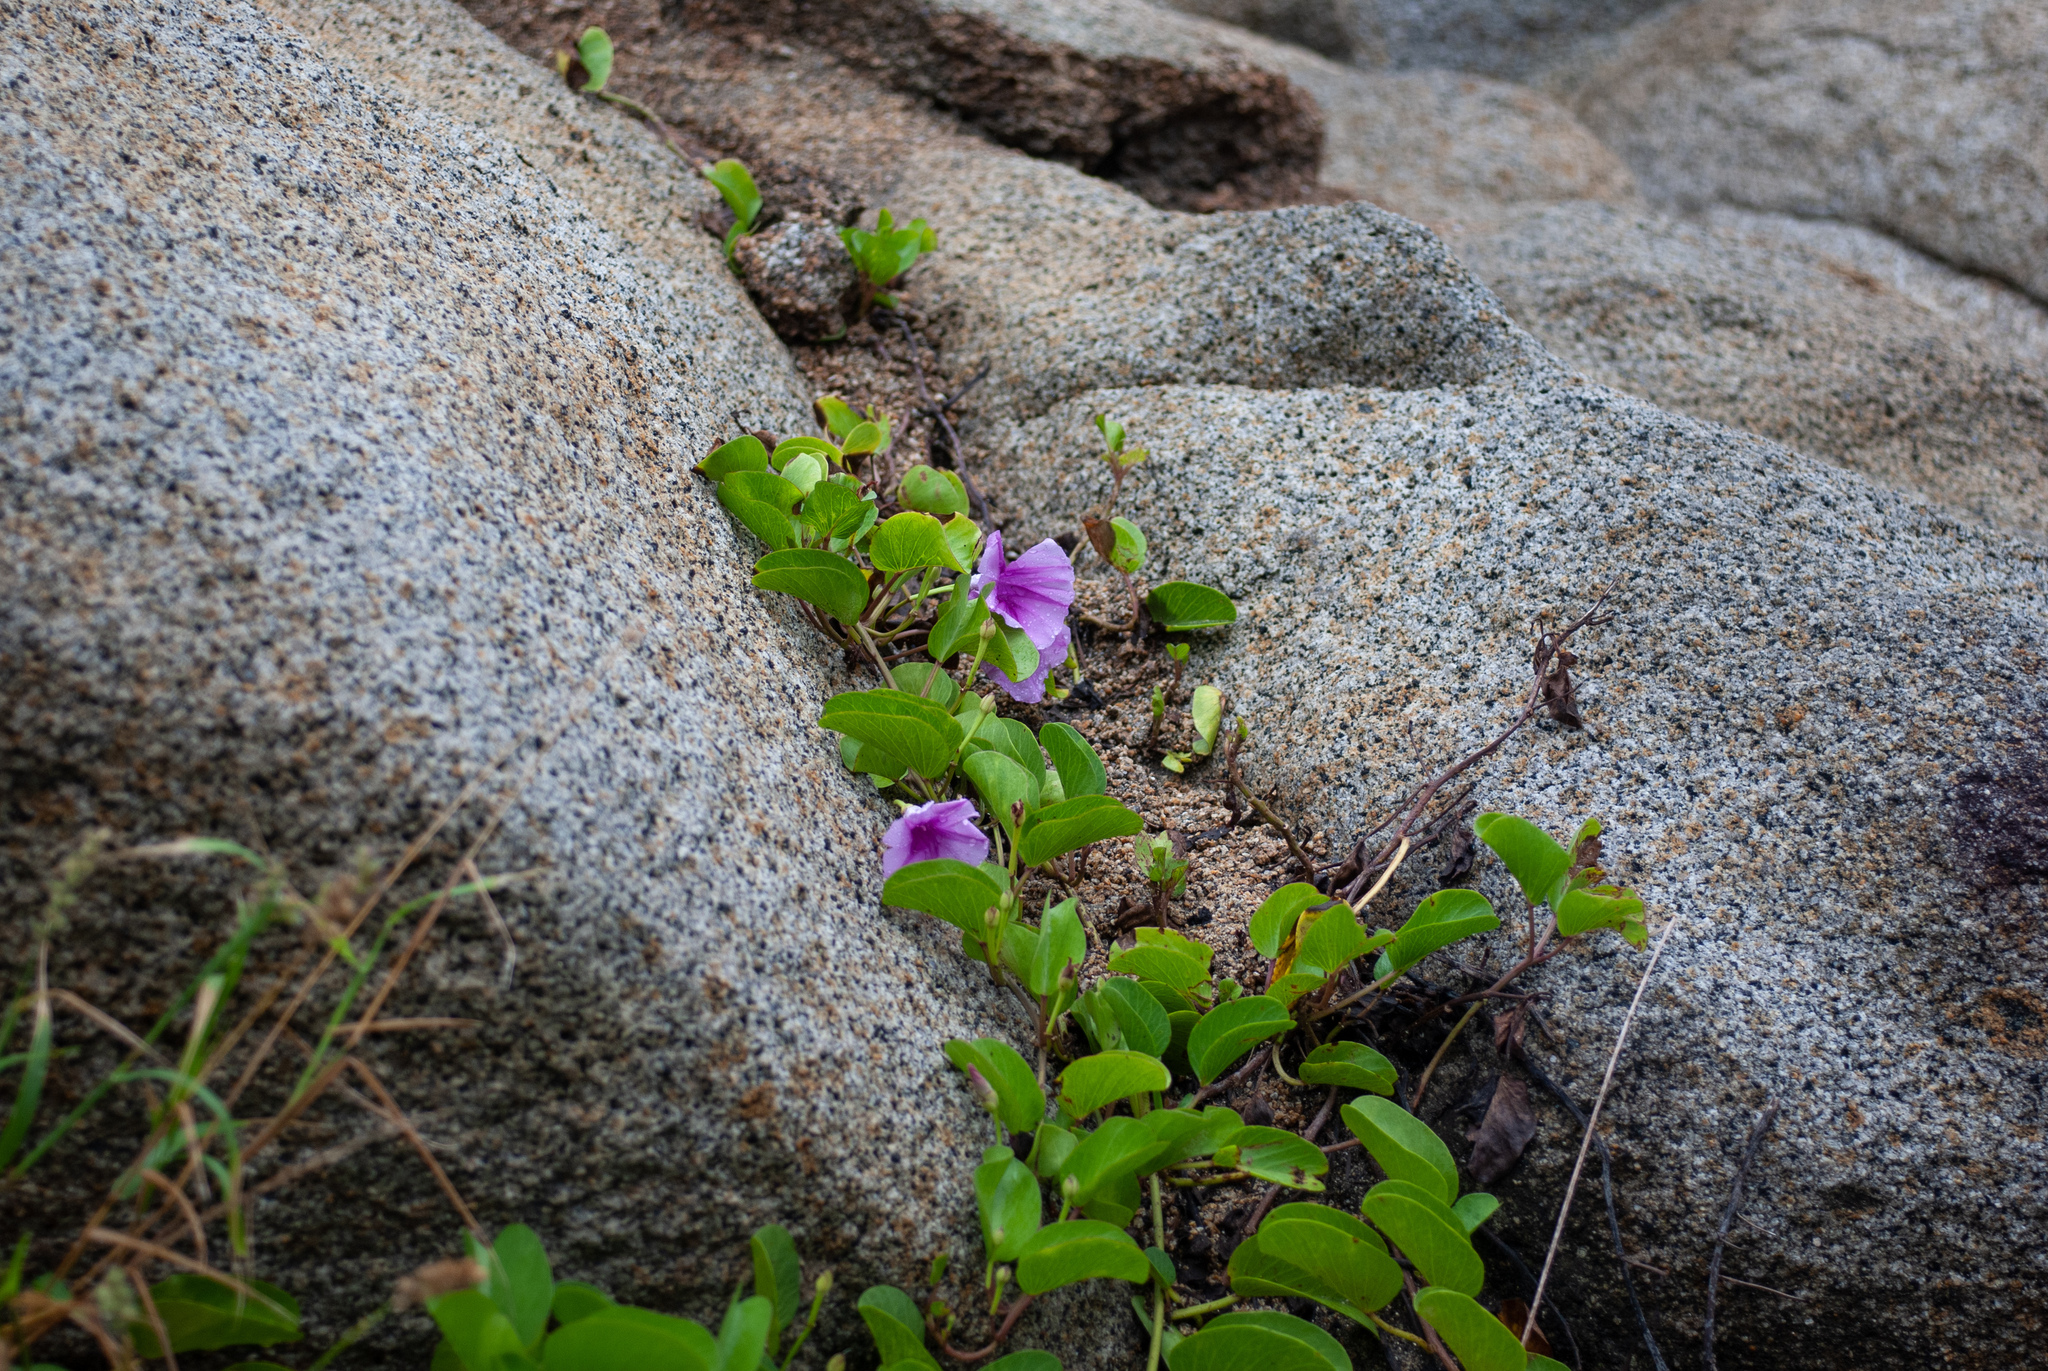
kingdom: Plantae
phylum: Tracheophyta
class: Magnoliopsida
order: Solanales
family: Convolvulaceae
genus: Ipomoea
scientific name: Ipomoea pes-caprae
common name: Beach morning glory
